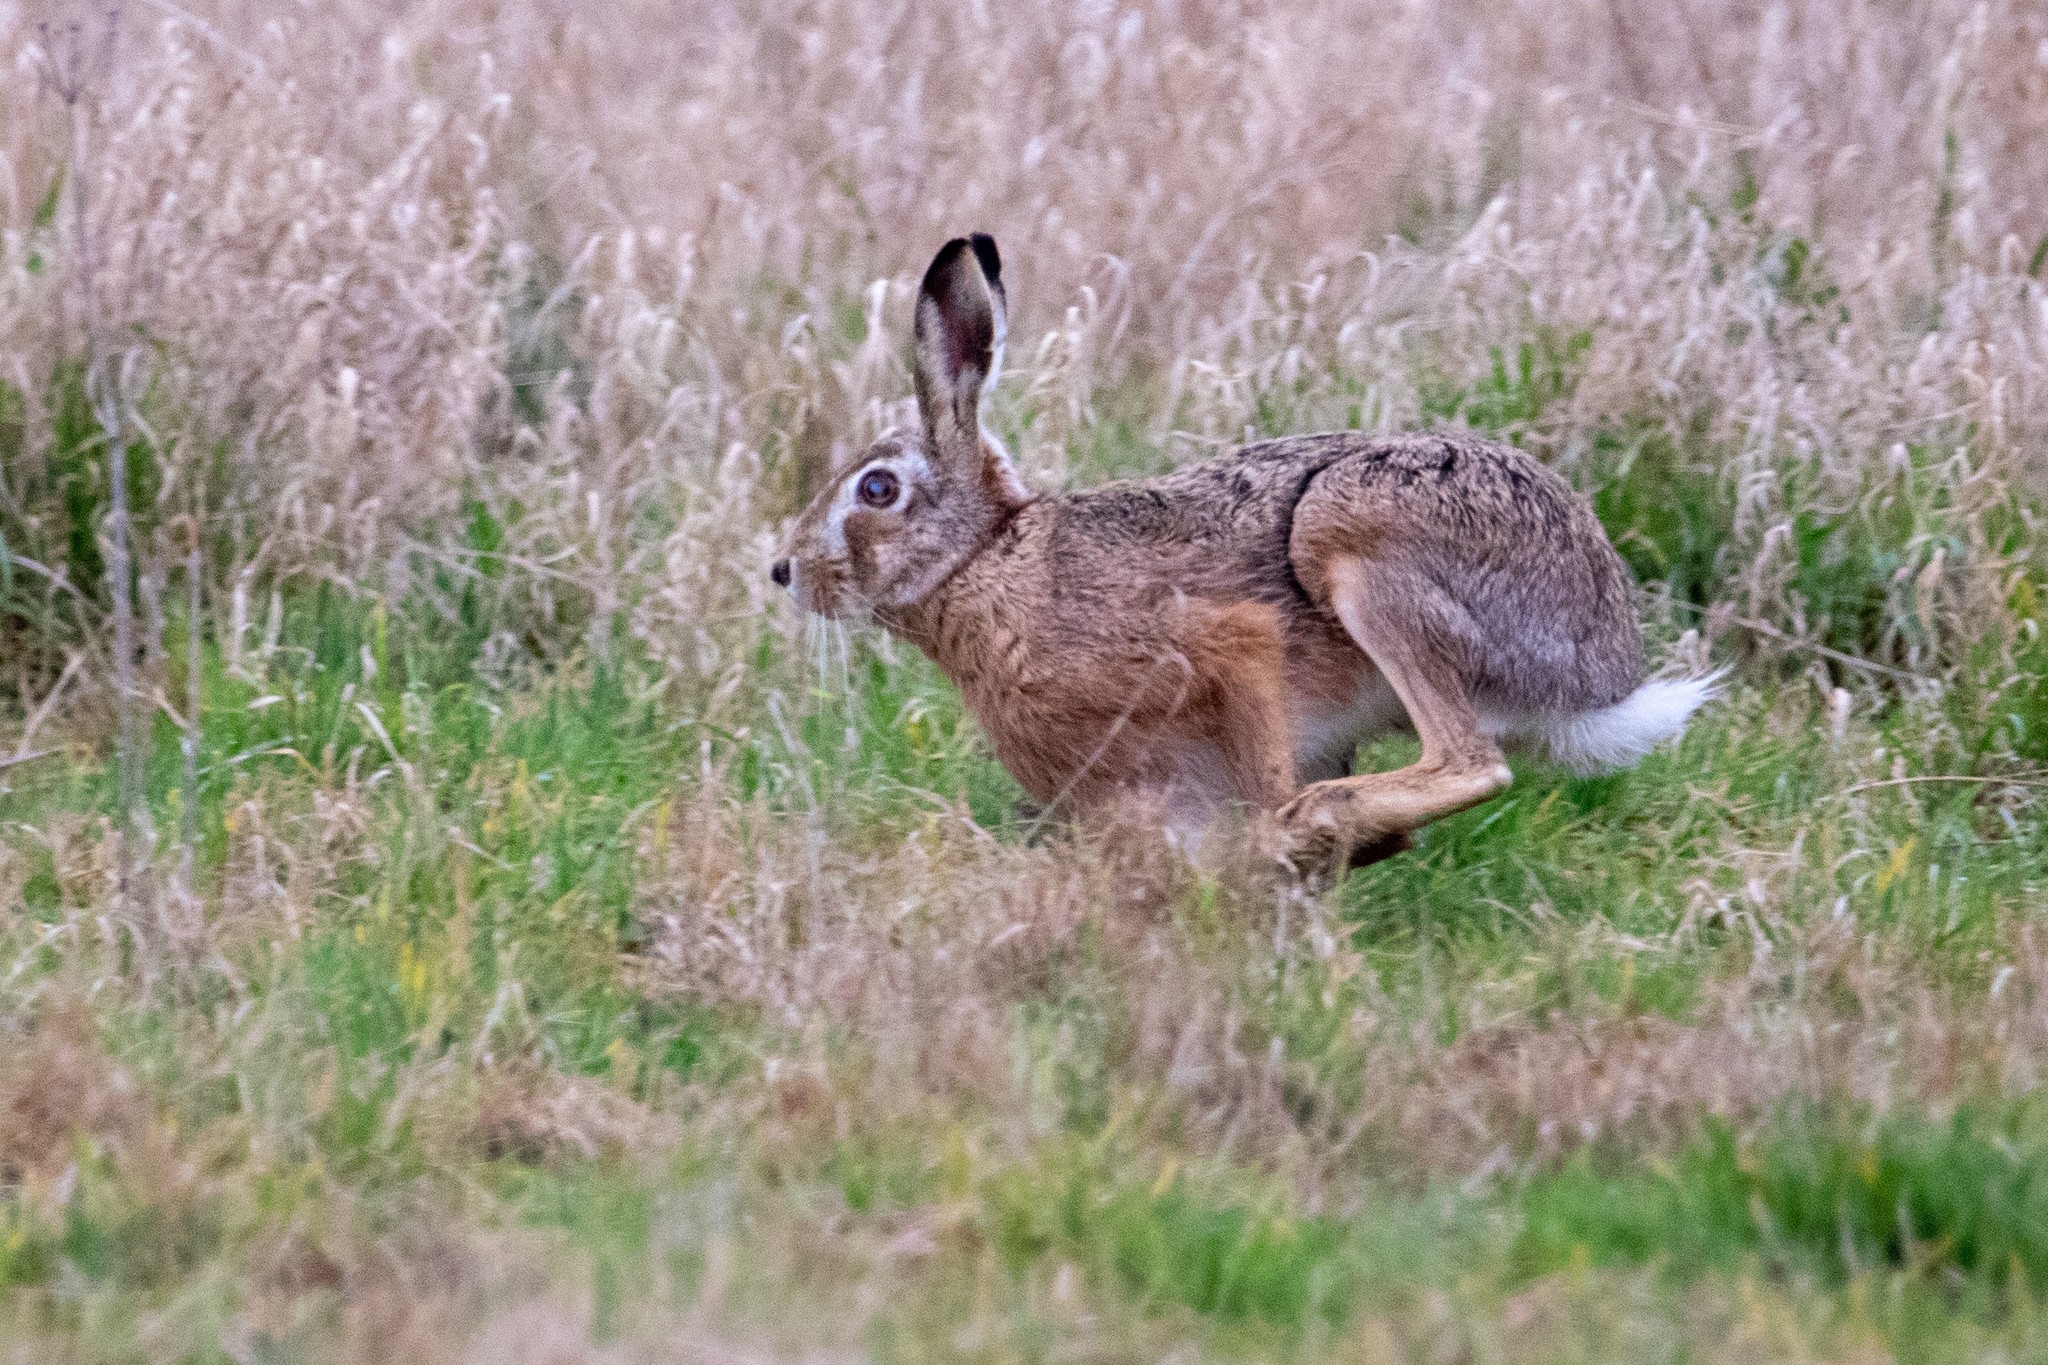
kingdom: Animalia
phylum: Chordata
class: Mammalia
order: Lagomorpha
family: Leporidae
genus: Lepus
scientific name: Lepus europaeus
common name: European hare
